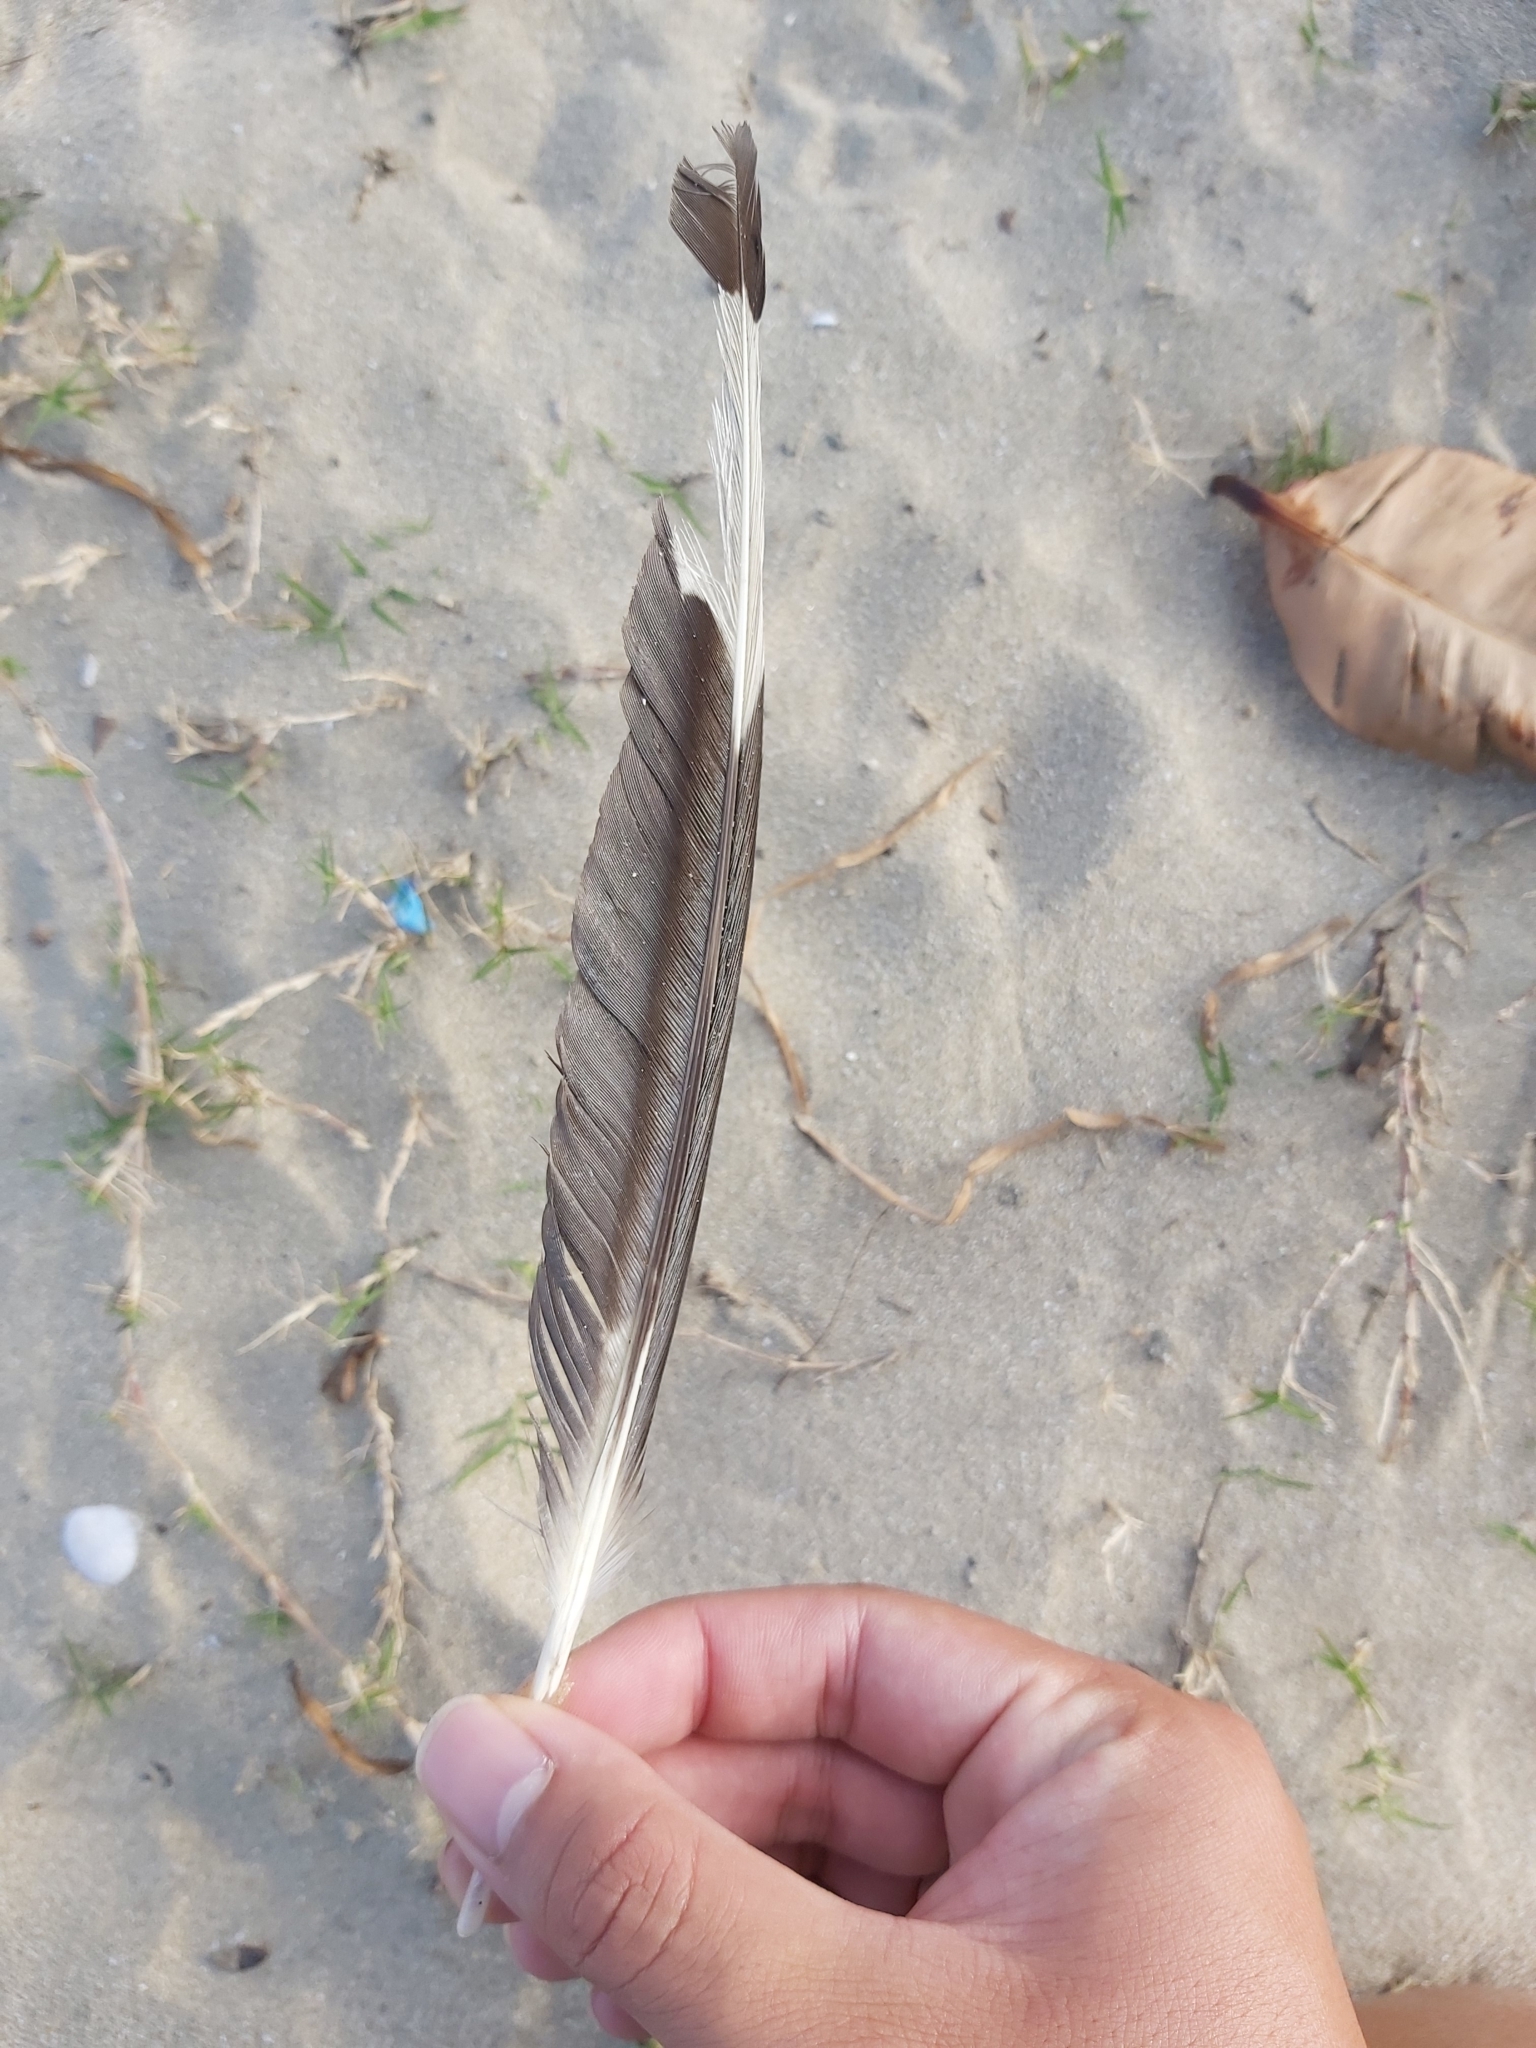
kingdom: Animalia
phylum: Chordata
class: Aves
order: Charadriiformes
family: Laridae
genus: Chroicocephalus
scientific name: Chroicocephalus novaehollandiae
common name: Silver gull
